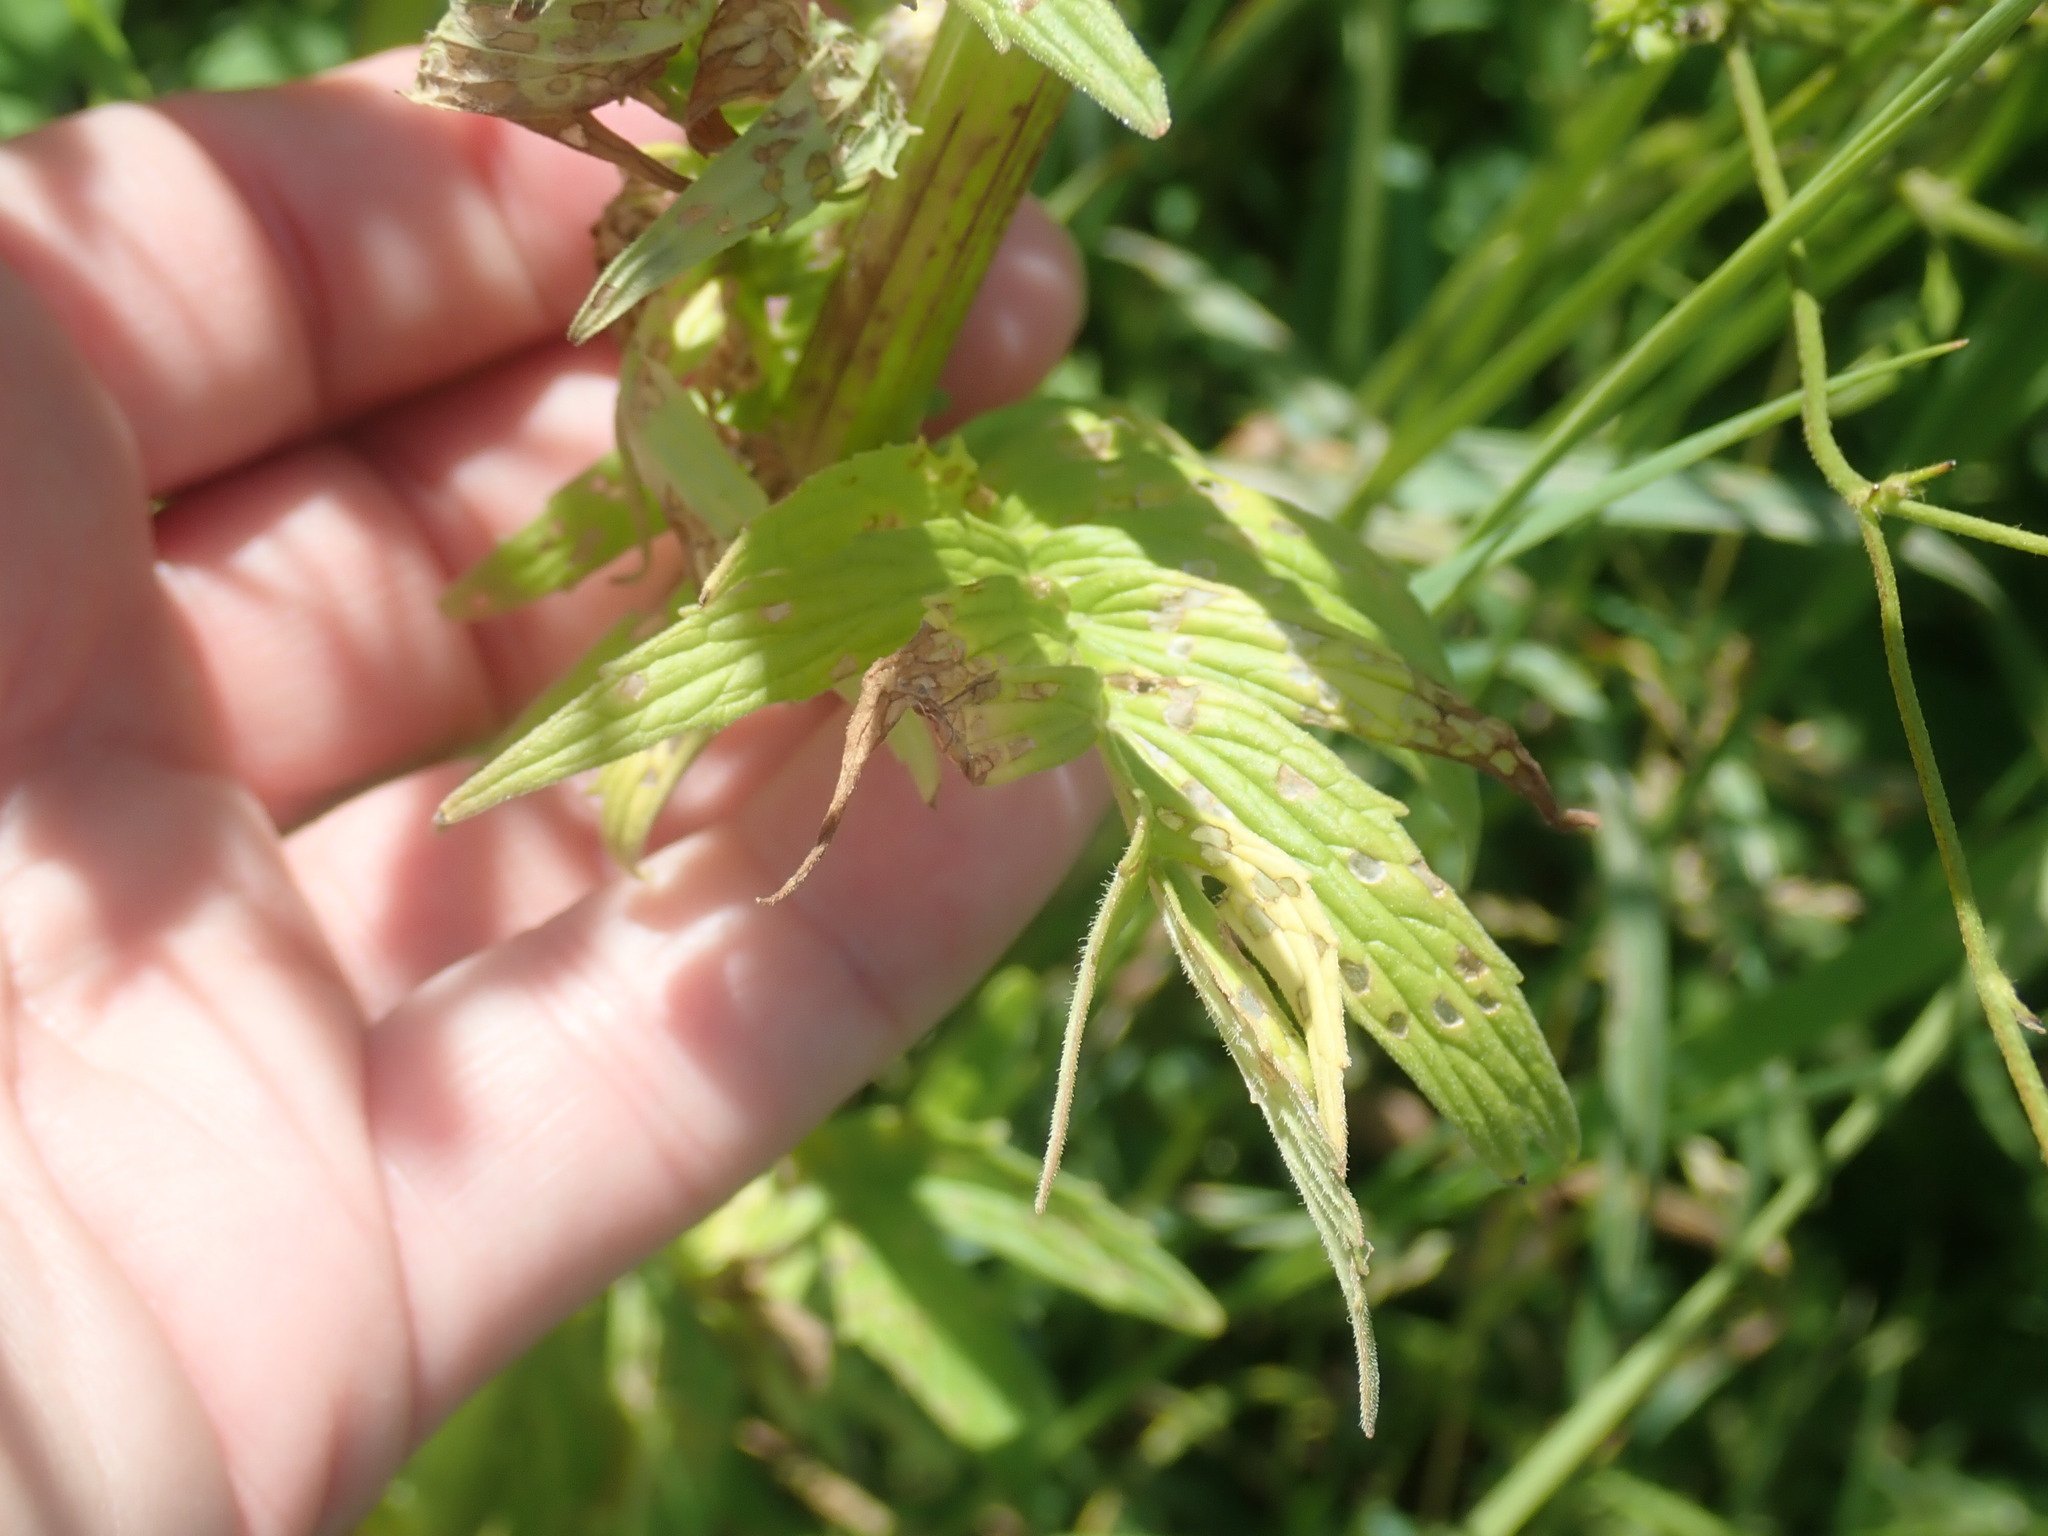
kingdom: Plantae
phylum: Tracheophyta
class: Magnoliopsida
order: Dipsacales
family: Caprifoliaceae
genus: Valeriana
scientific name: Valeriana officinalis
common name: Common valerian
